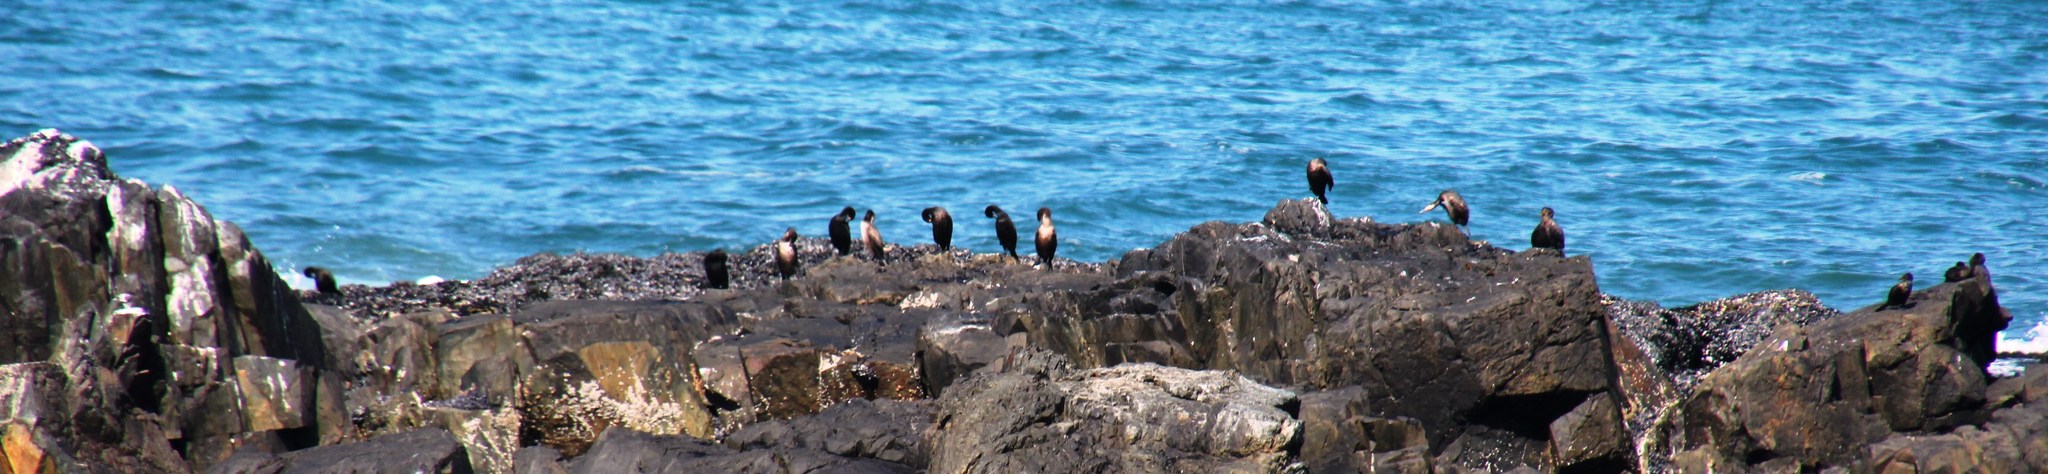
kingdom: Animalia
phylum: Chordata
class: Aves
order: Suliformes
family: Phalacrocoracidae
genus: Phalacrocorax
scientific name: Phalacrocorax carbo
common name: Great cormorant
